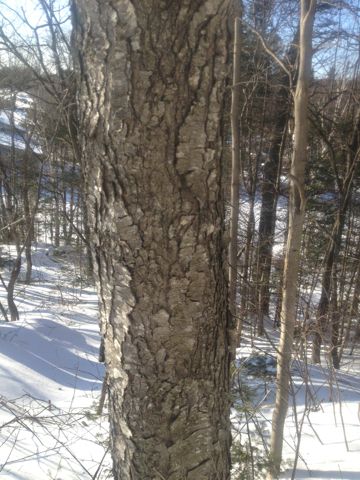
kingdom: Plantae
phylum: Tracheophyta
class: Magnoliopsida
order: Rosales
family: Rosaceae
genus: Prunus
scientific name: Prunus serotina
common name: Black cherry
